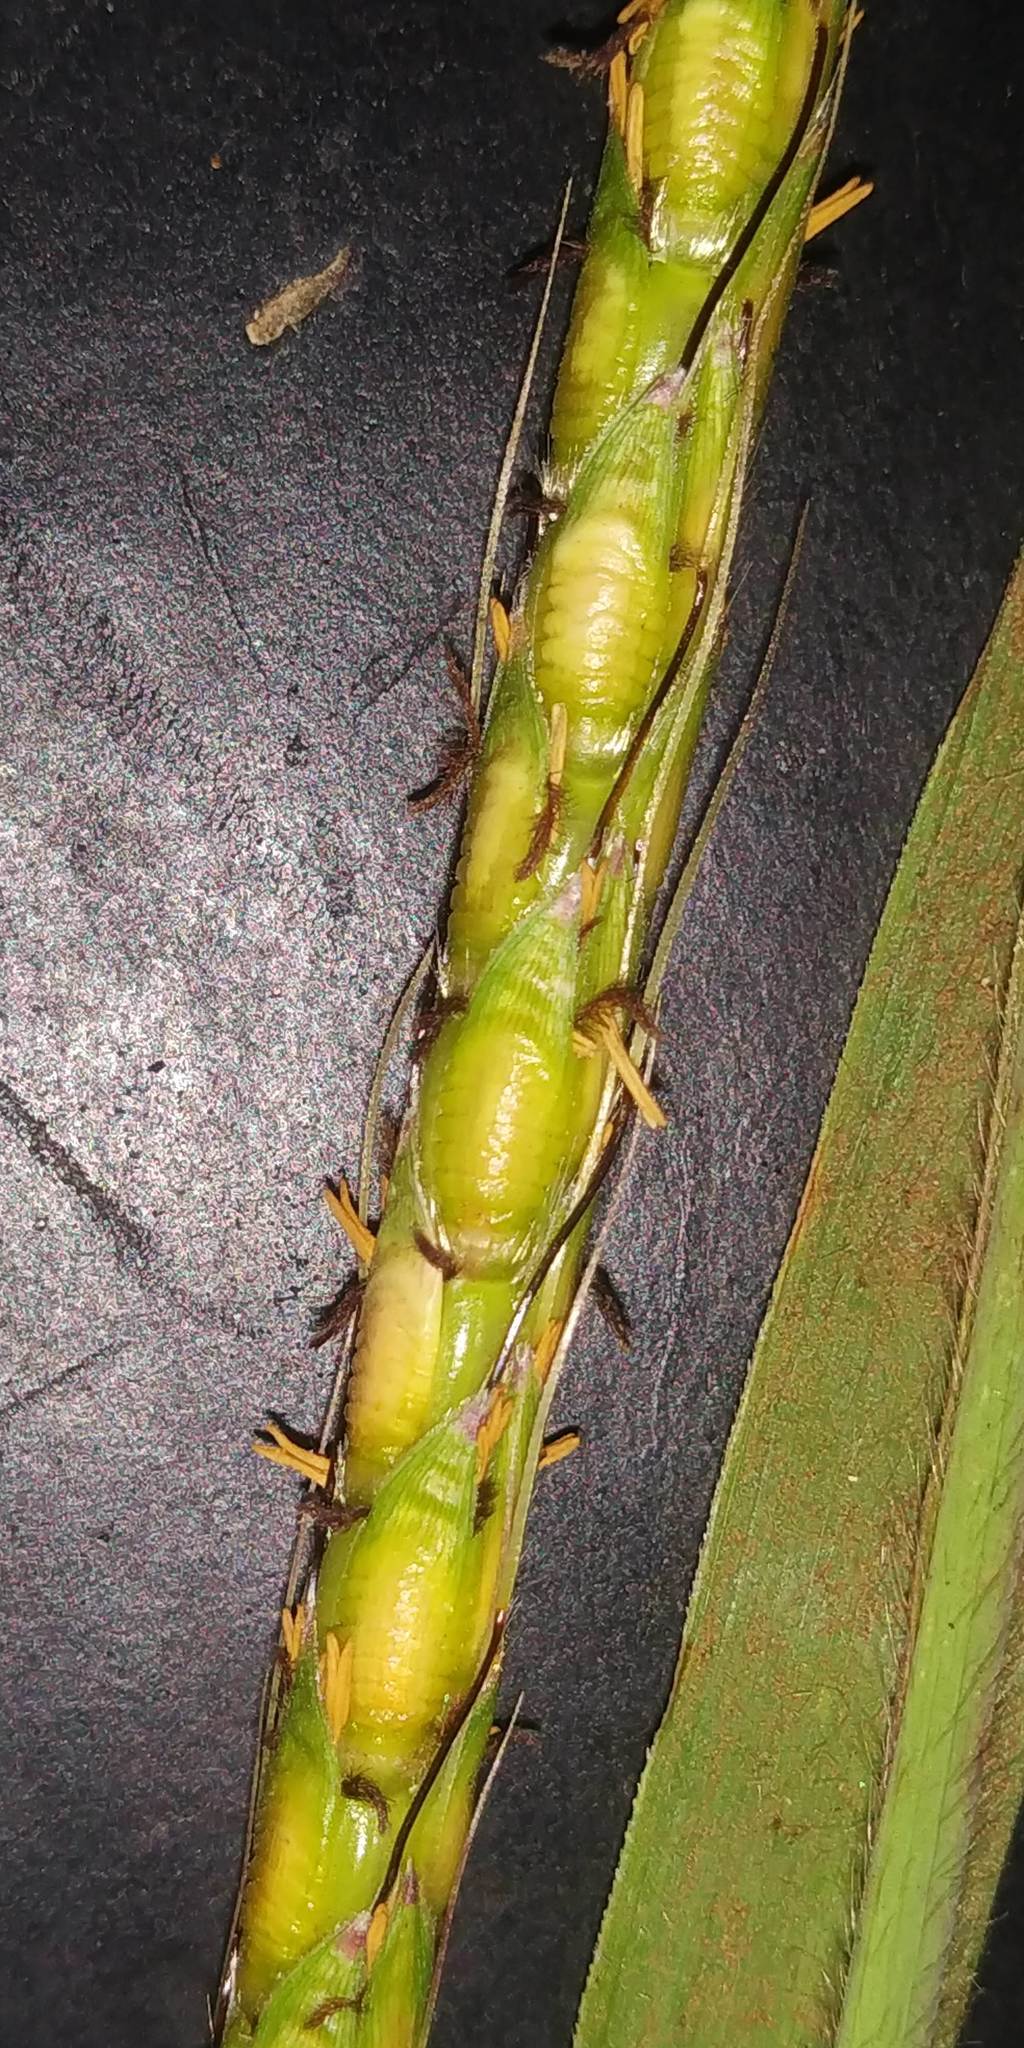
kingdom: Plantae
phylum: Tracheophyta
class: Liliopsida
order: Poales
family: Poaceae
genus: Ischaemum
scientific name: Ischaemum barbatum
